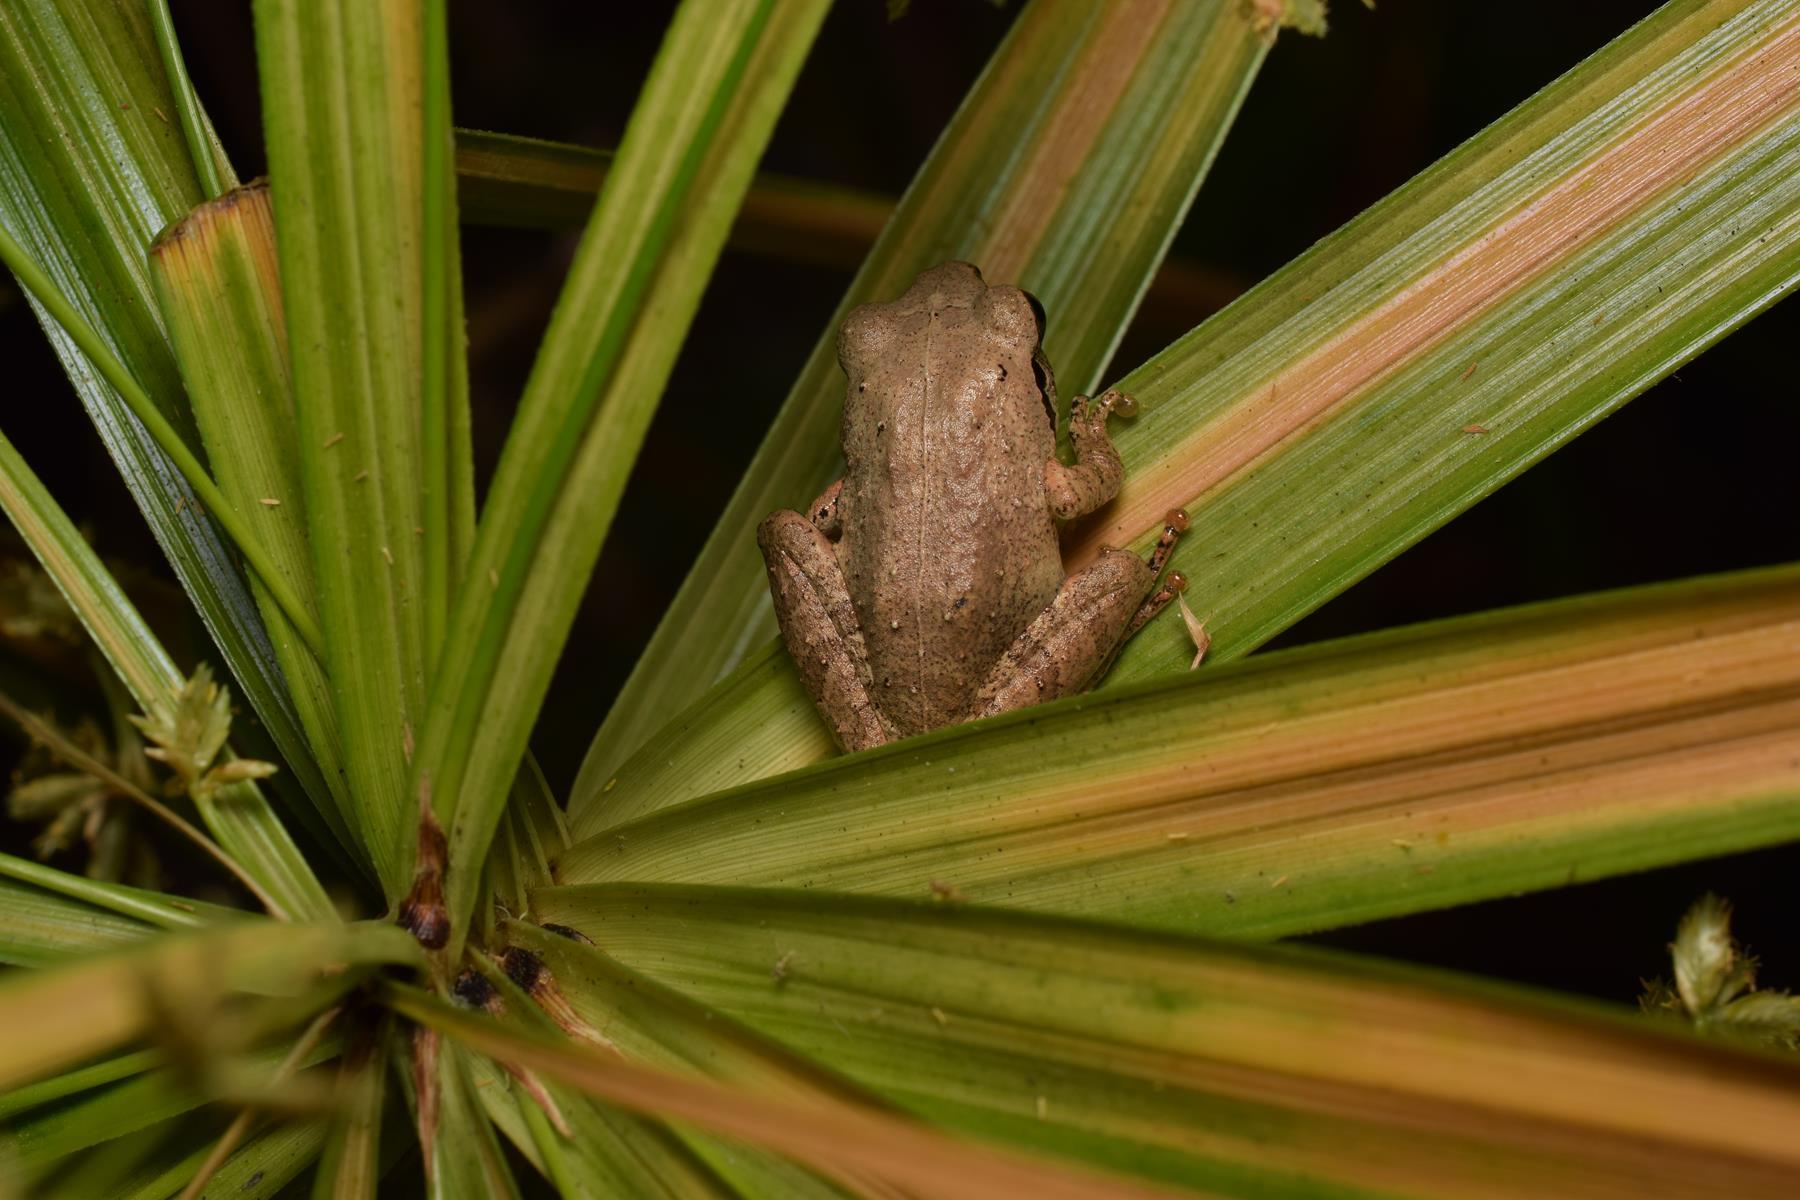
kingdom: Animalia
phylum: Chordata
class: Amphibia
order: Anura
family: Rhacophoridae
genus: Pseudophilautus
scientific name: Pseudophilautus wynaadensis
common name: Dark-eared bush frog
